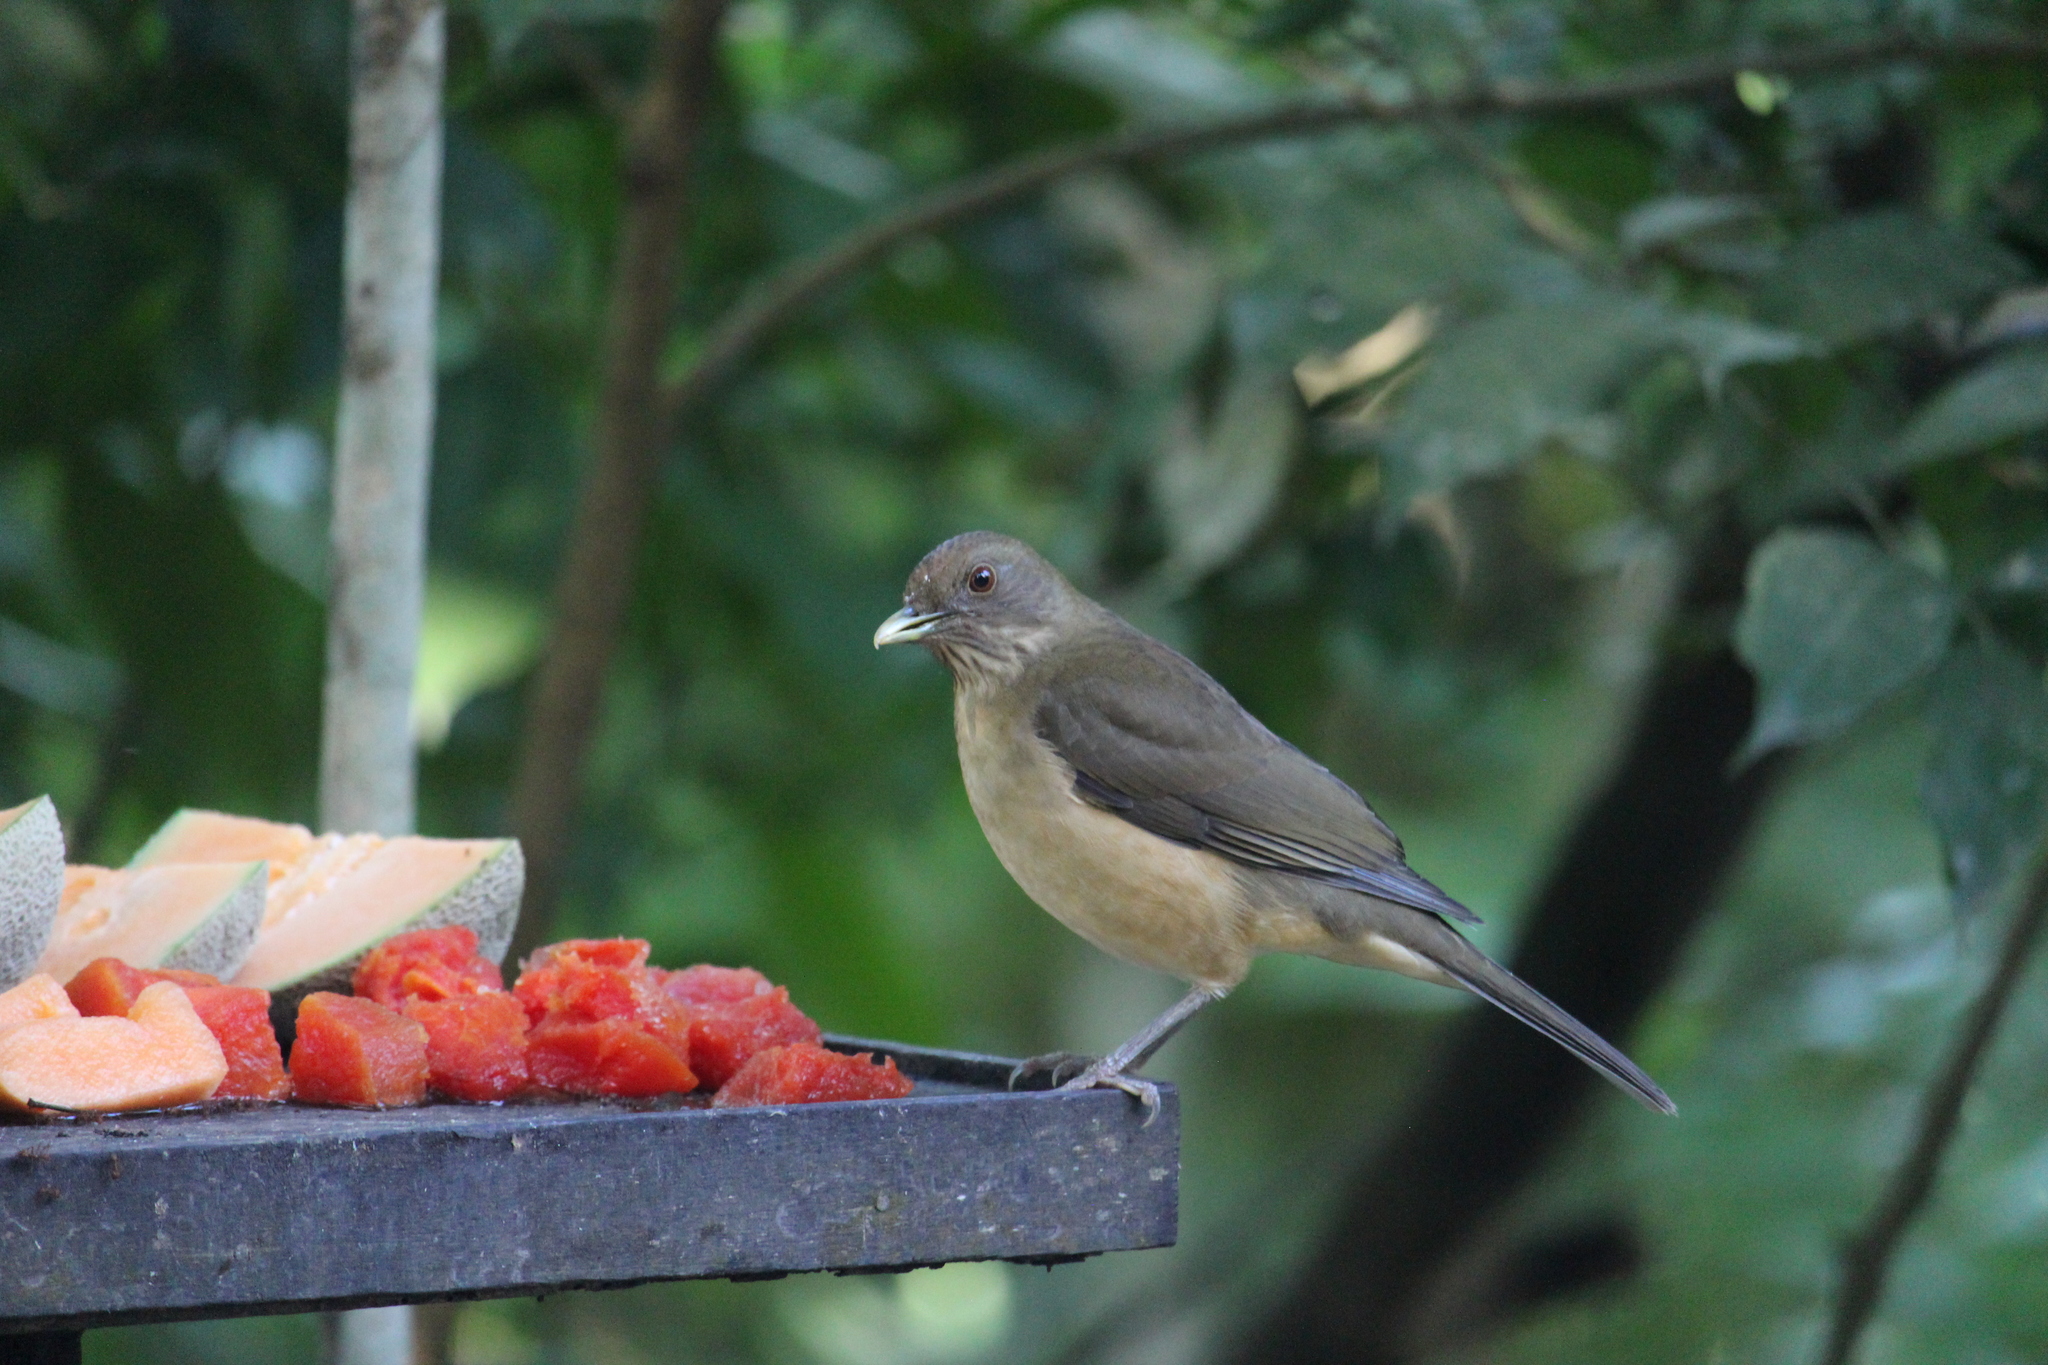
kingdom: Animalia
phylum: Chordata
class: Aves
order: Passeriformes
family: Turdidae
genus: Turdus
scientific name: Turdus grayi
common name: Clay-colored thrush
